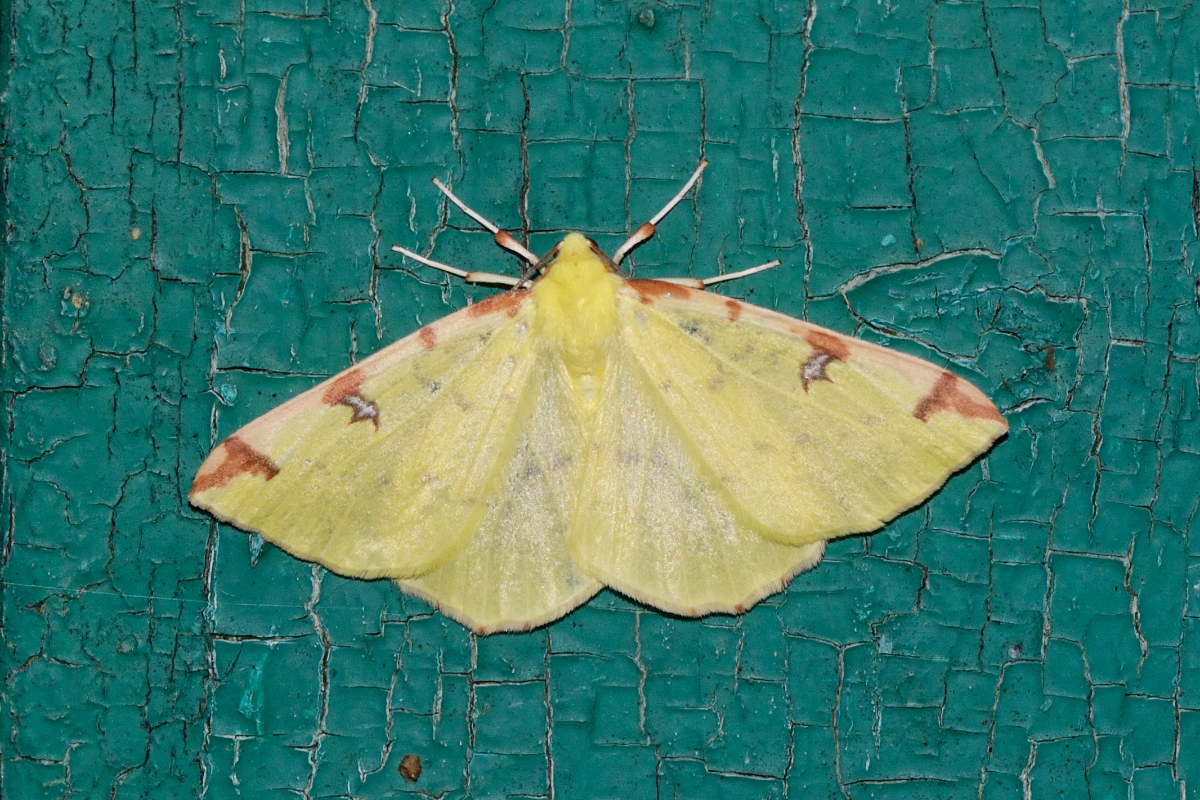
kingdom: Animalia
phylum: Arthropoda
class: Insecta
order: Lepidoptera
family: Geometridae
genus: Opisthograptis
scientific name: Opisthograptis luteolata
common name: Brimstone moth
